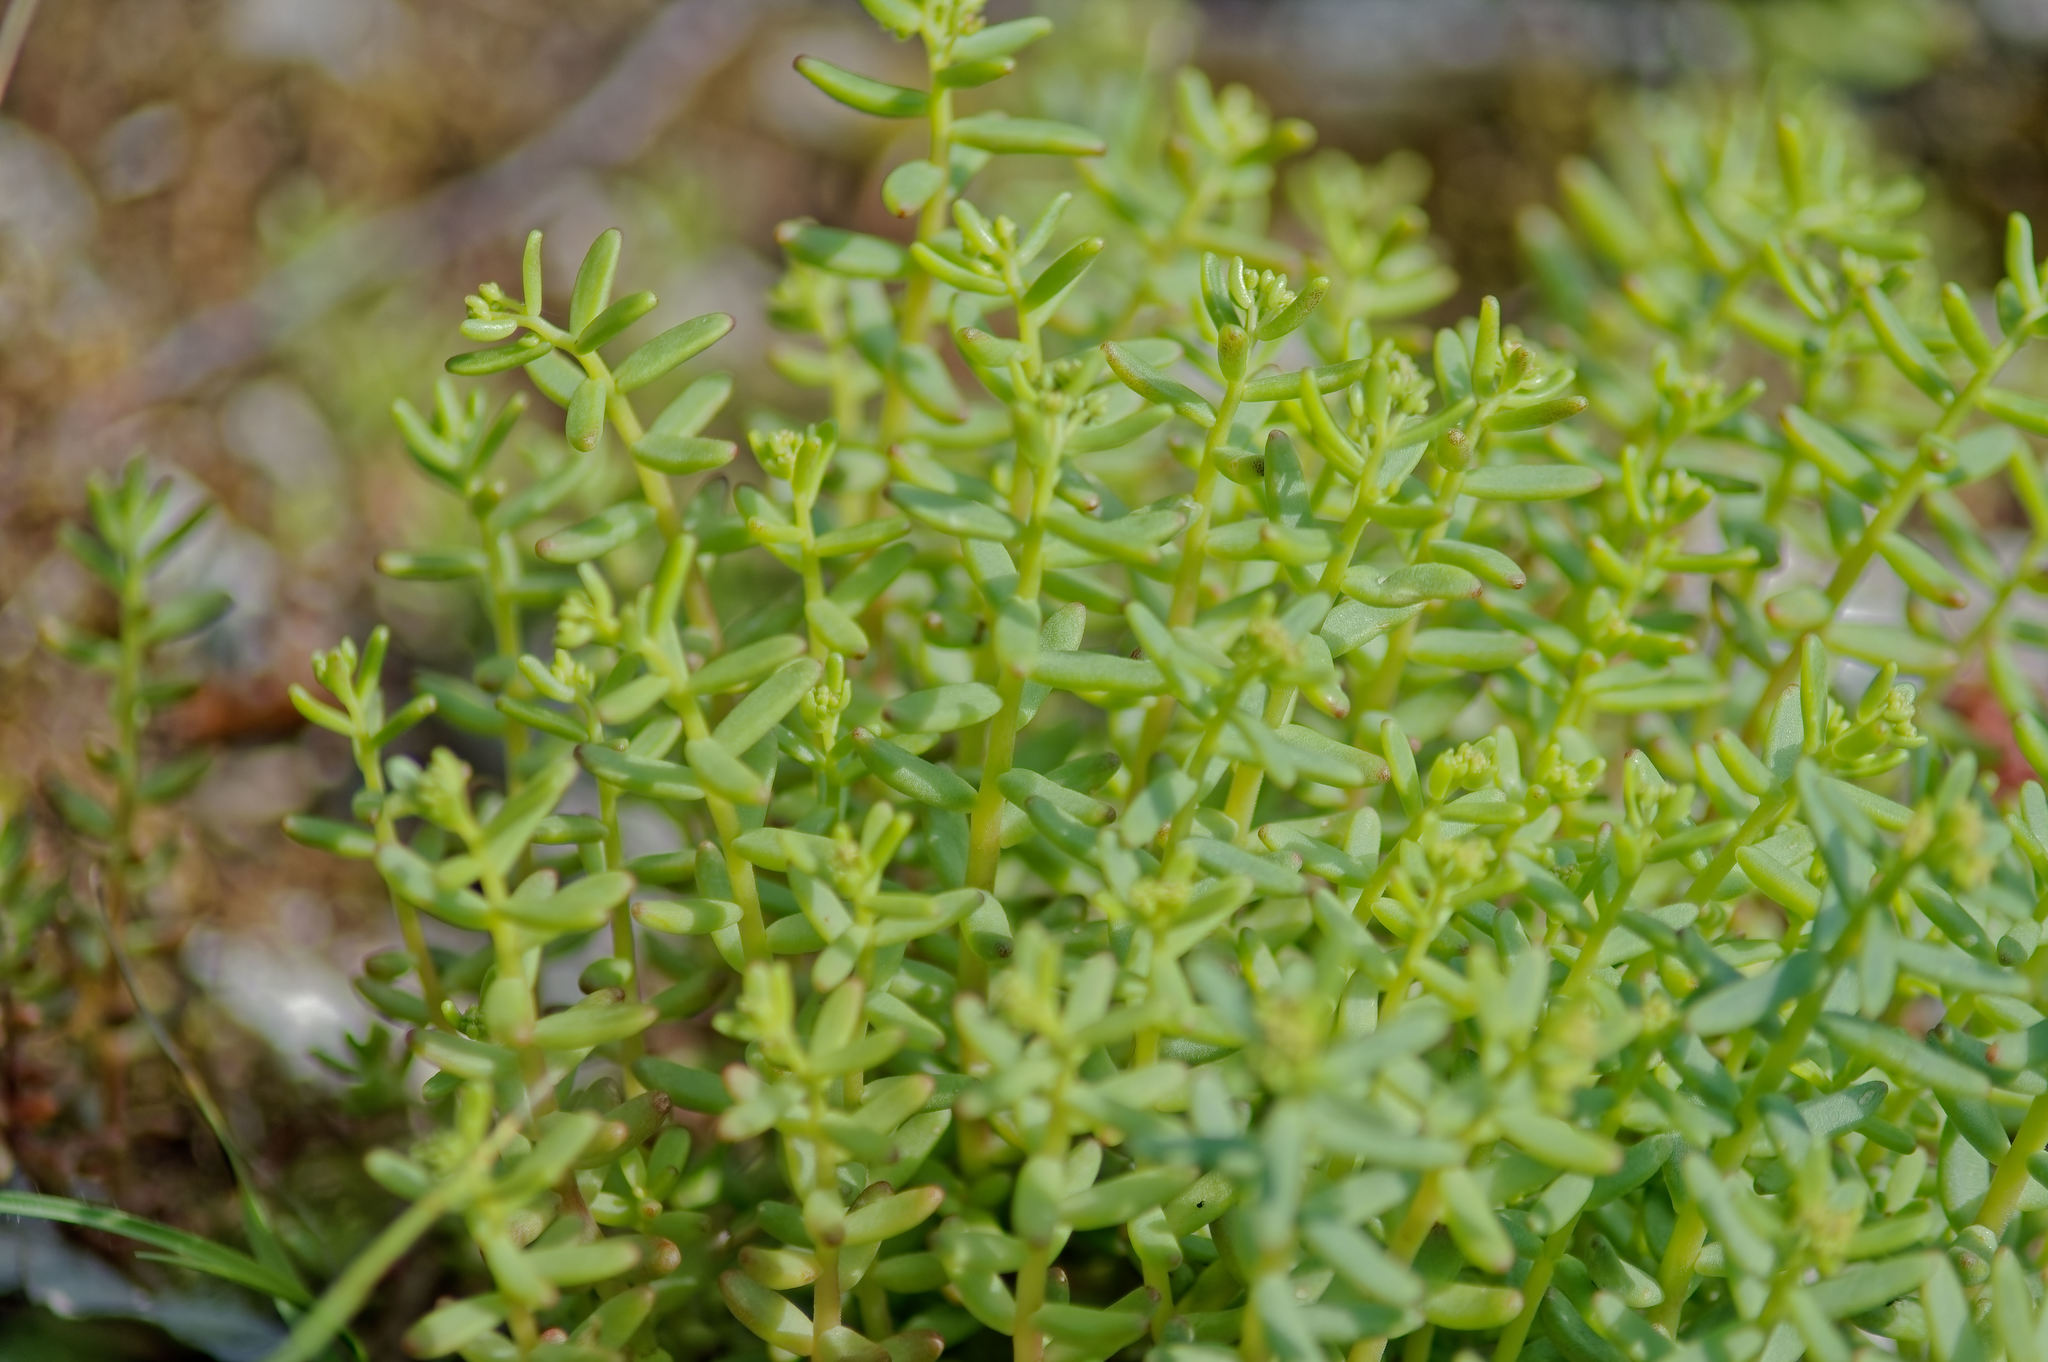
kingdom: Plantae
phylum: Tracheophyta
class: Magnoliopsida
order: Saxifragales
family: Crassulaceae
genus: Sedum
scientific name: Sedum album
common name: White stonecrop
